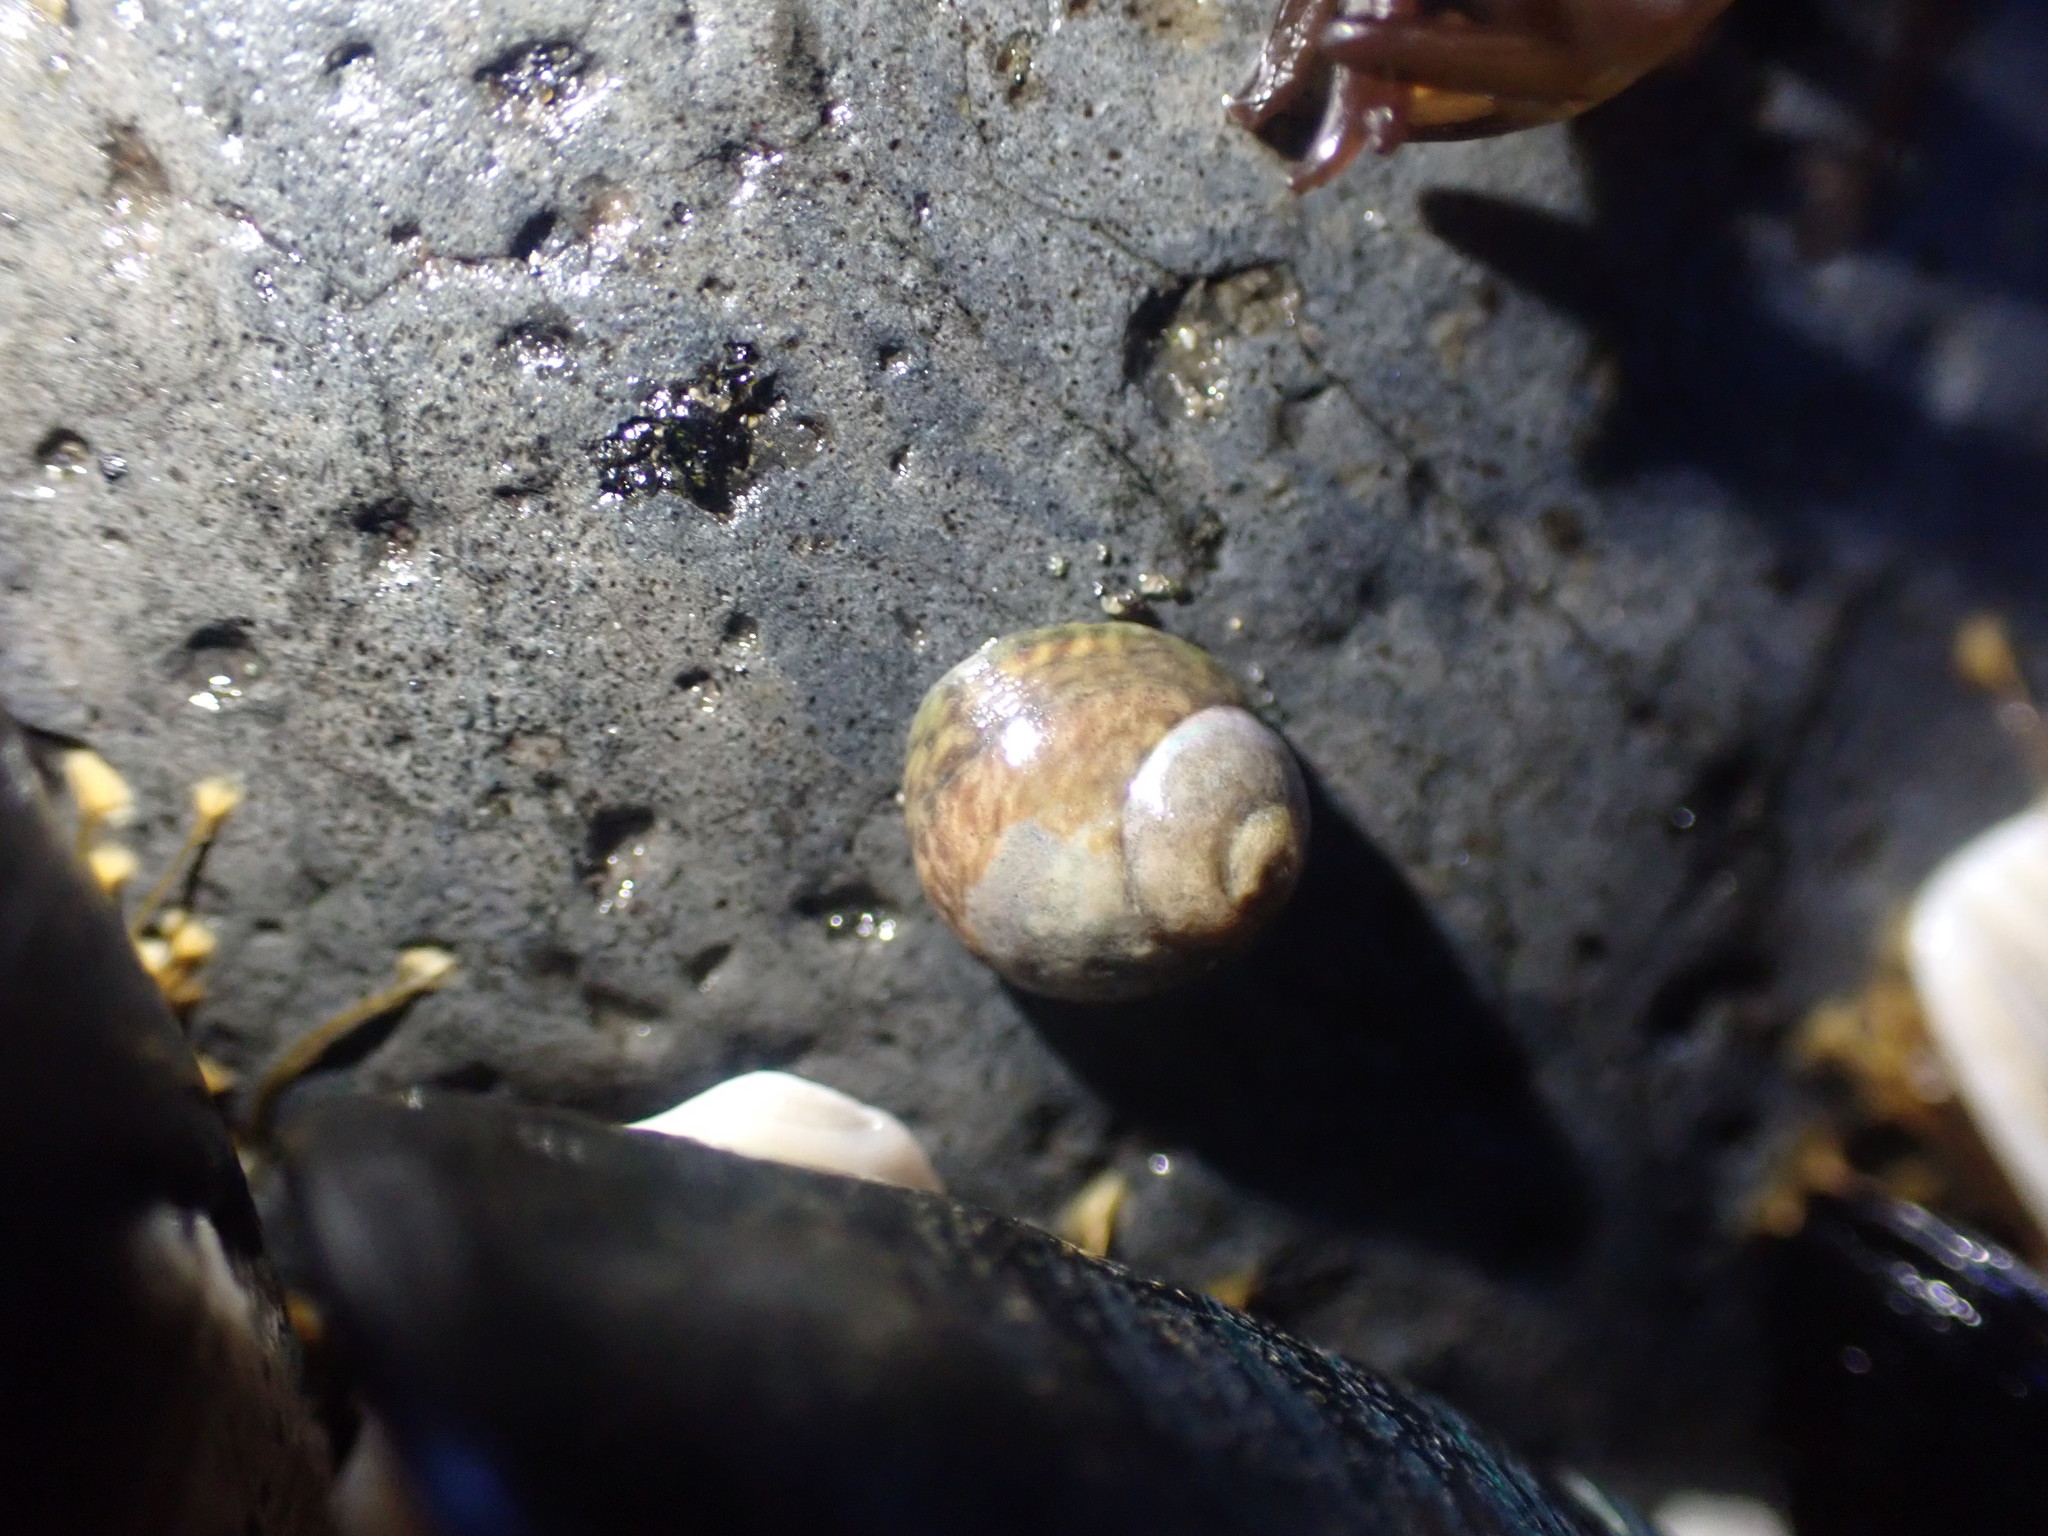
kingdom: Animalia
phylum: Mollusca
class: Gastropoda
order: Trochida
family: Trochidae
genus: Diloma
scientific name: Diloma coracinum
